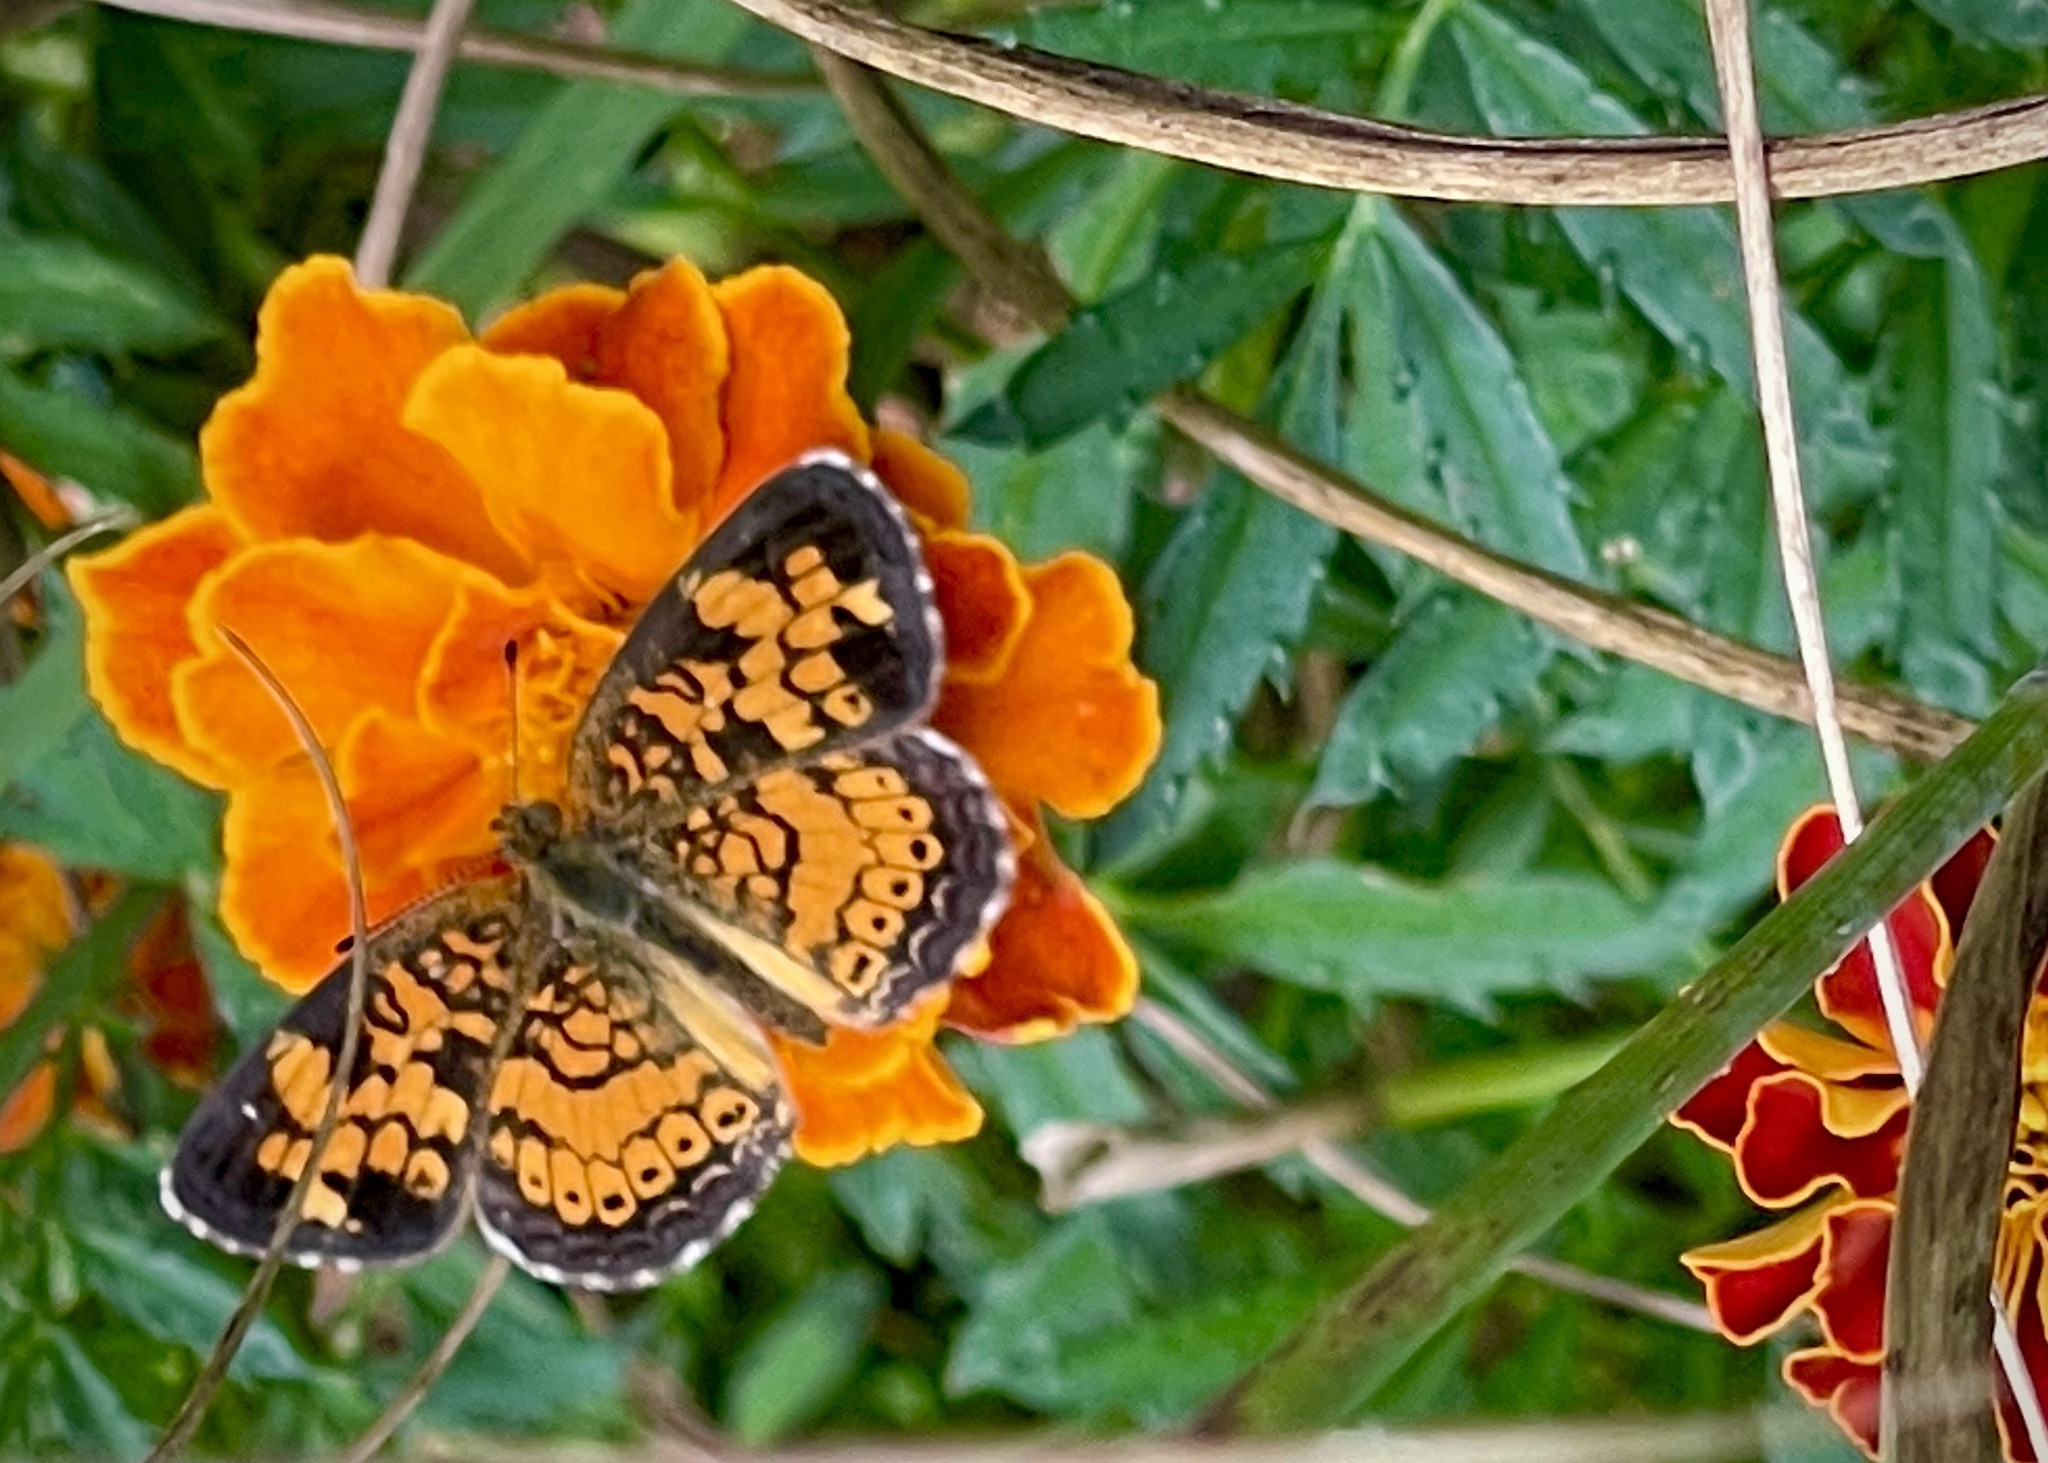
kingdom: Animalia
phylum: Arthropoda
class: Insecta
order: Lepidoptera
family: Nymphalidae
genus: Phyciodes
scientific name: Phyciodes tharos
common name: Pearl crescent
